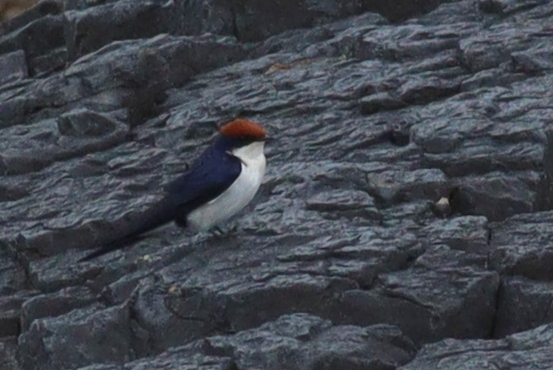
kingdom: Animalia
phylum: Chordata
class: Aves
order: Passeriformes
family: Hirundinidae
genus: Hirundo
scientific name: Hirundo smithii
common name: Wire-tailed swallow
